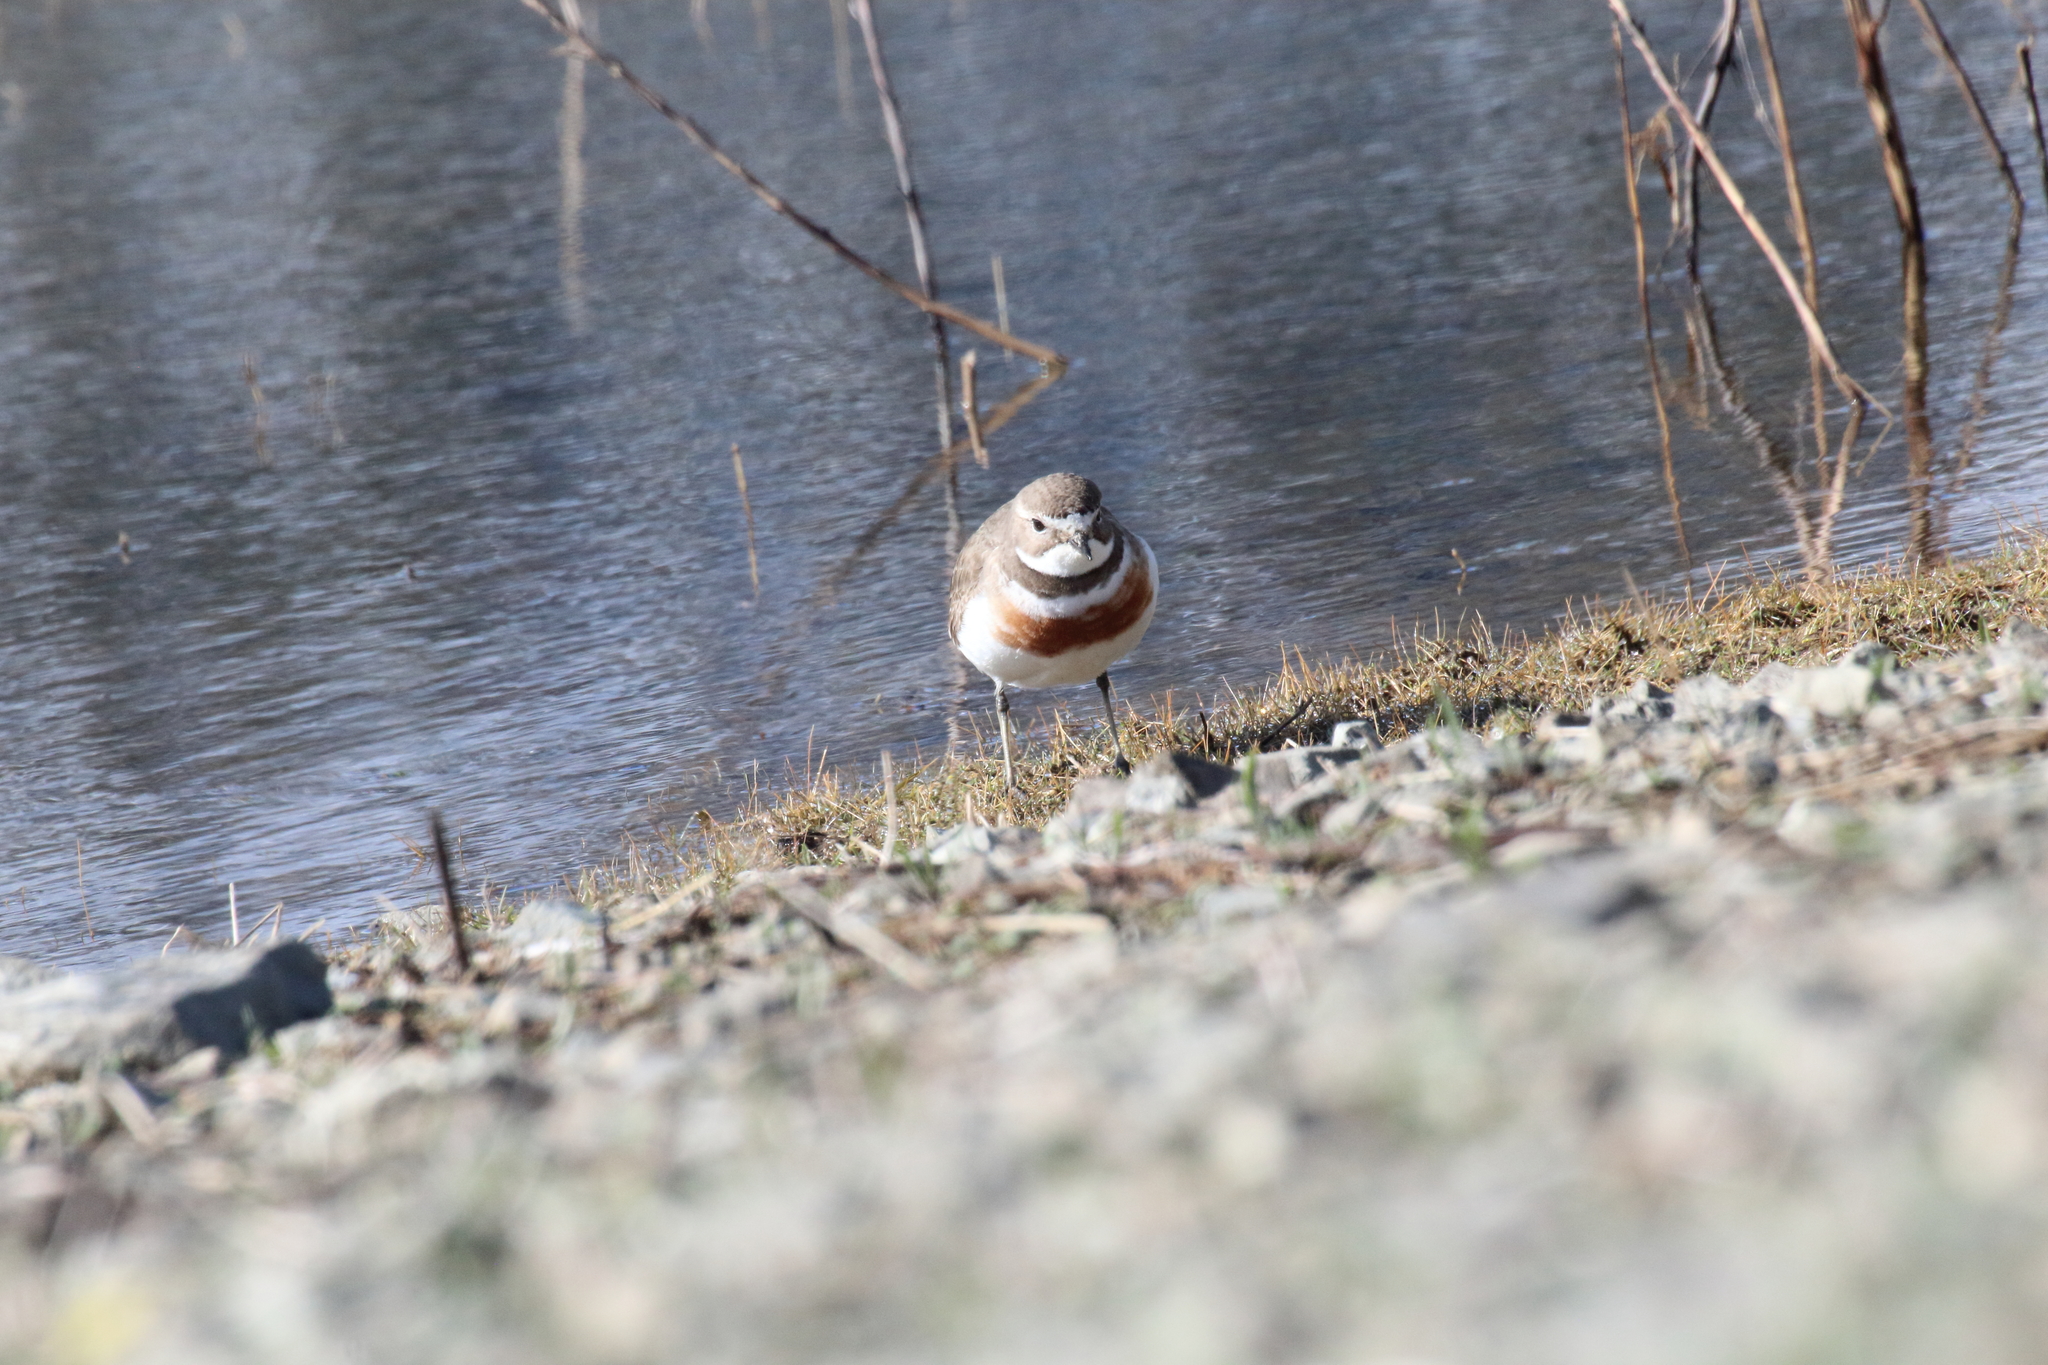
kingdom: Animalia
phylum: Chordata
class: Aves
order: Charadriiformes
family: Charadriidae
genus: Anarhynchus
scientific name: Anarhynchus
